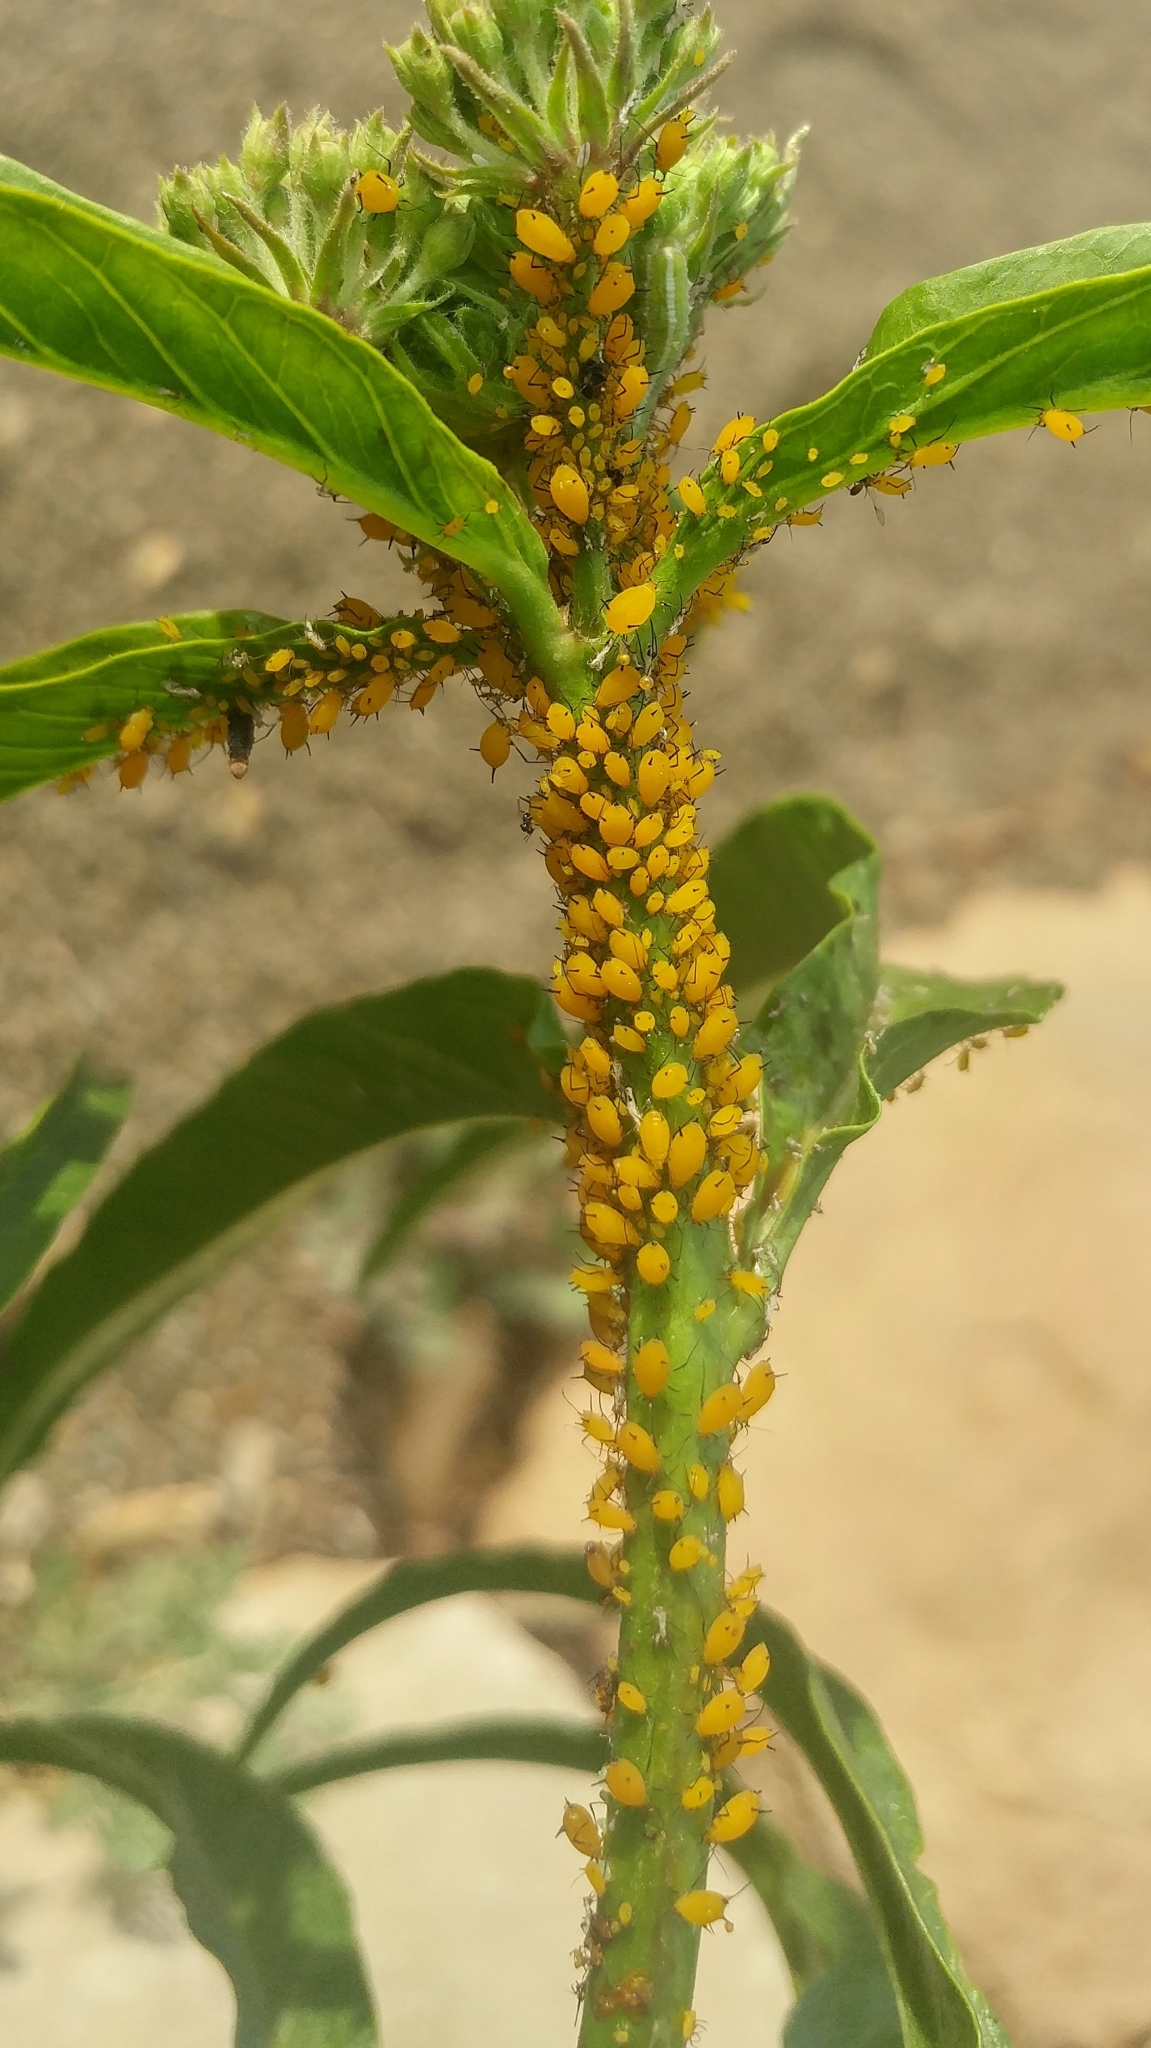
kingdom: Animalia
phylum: Arthropoda
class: Insecta
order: Hemiptera
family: Aphididae
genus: Aphis
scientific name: Aphis nerii
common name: Oleander aphid
